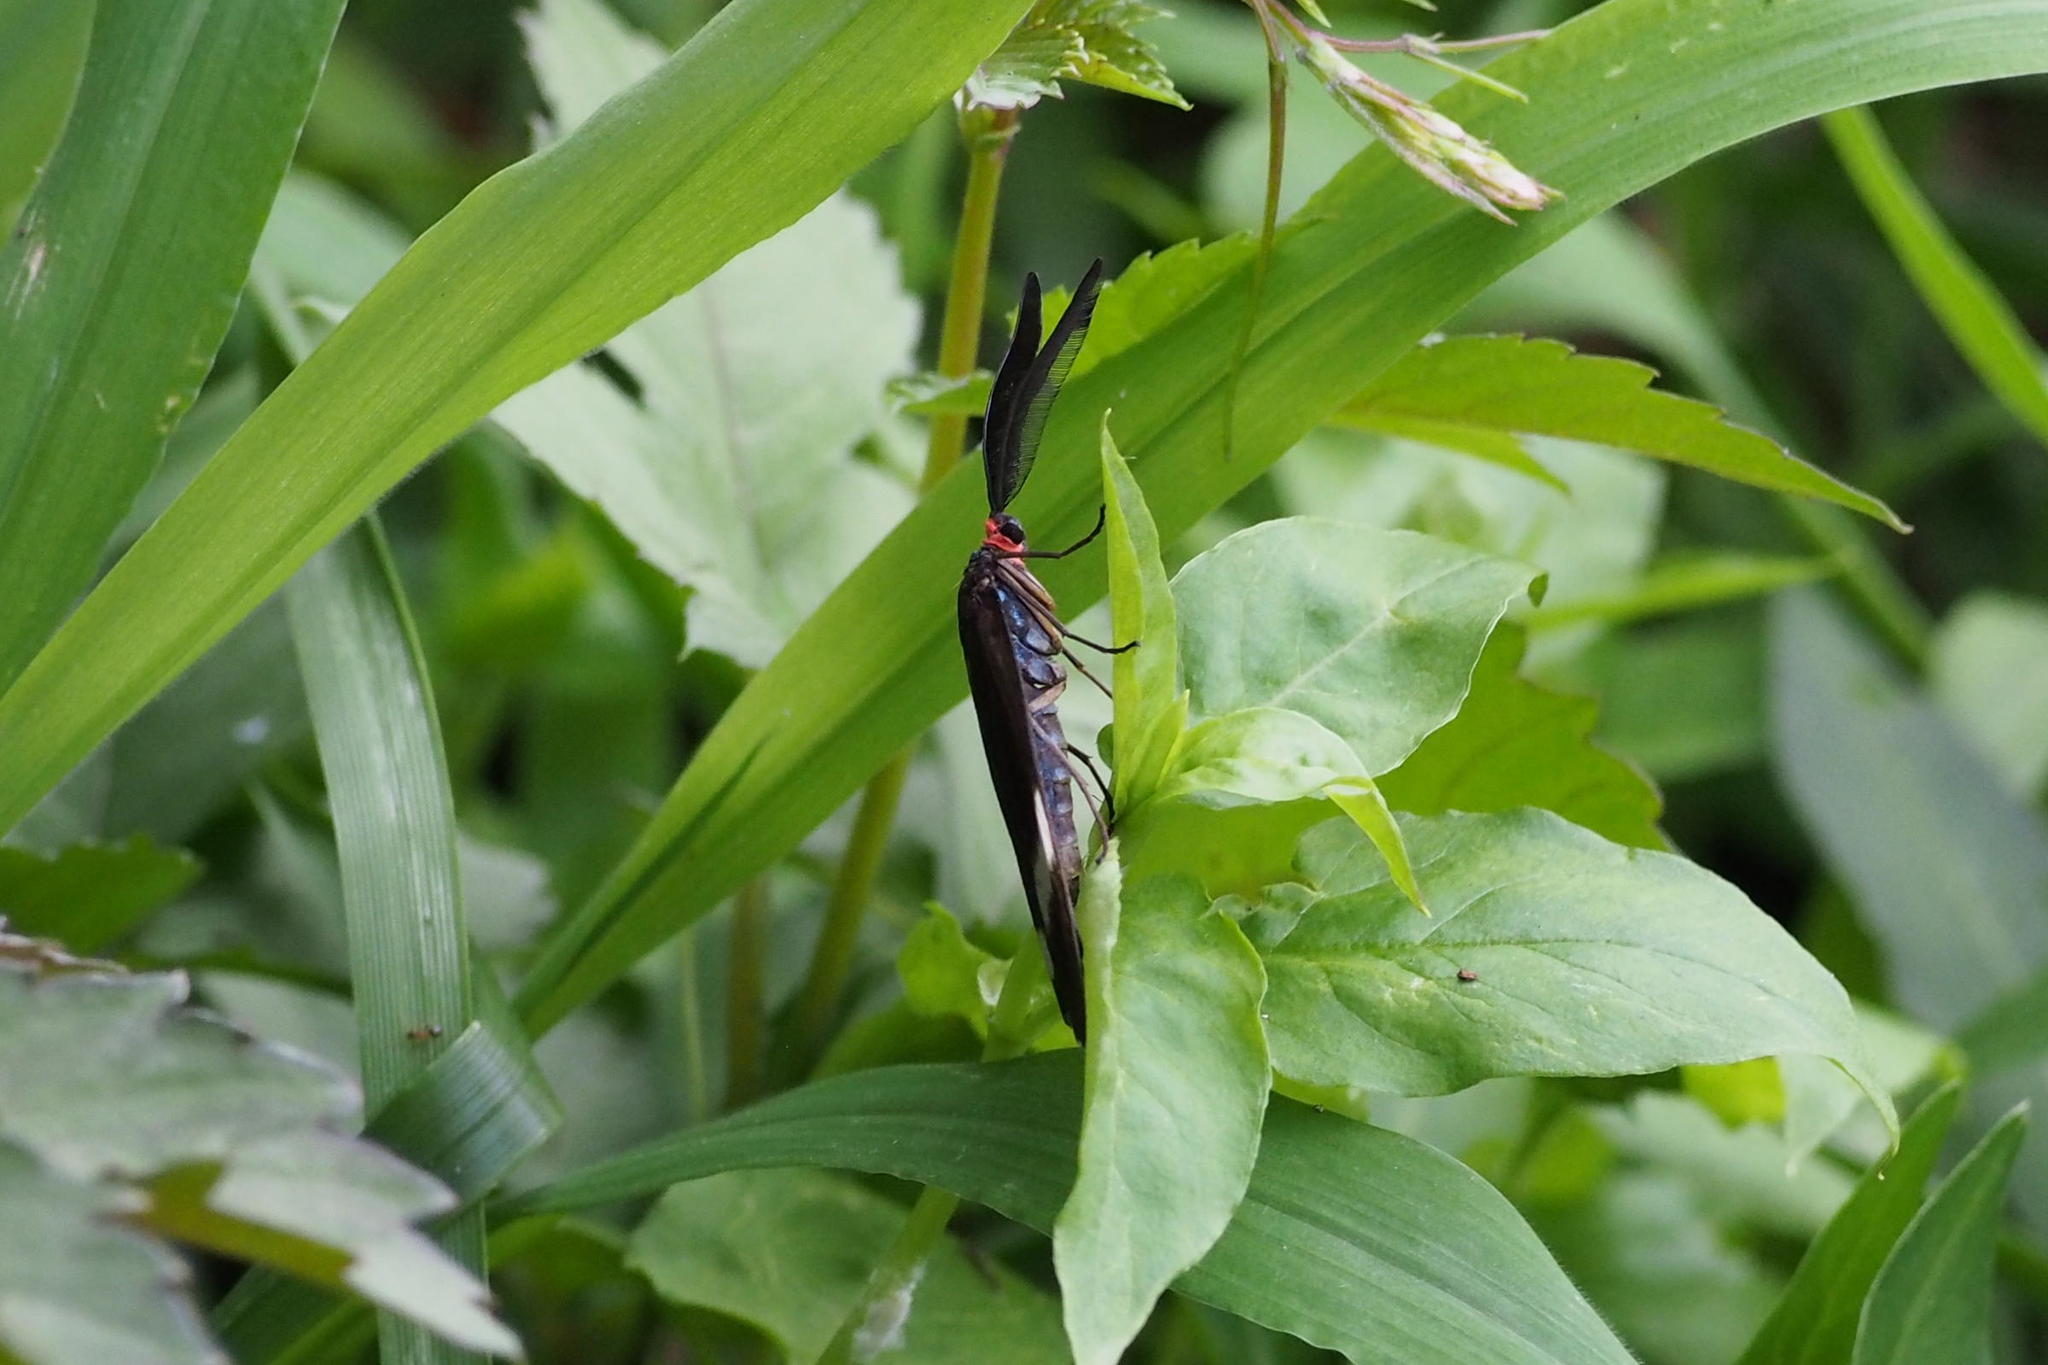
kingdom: Animalia
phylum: Arthropoda
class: Insecta
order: Lepidoptera
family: Zygaenidae
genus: Pidorus
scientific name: Pidorus glaucopis
